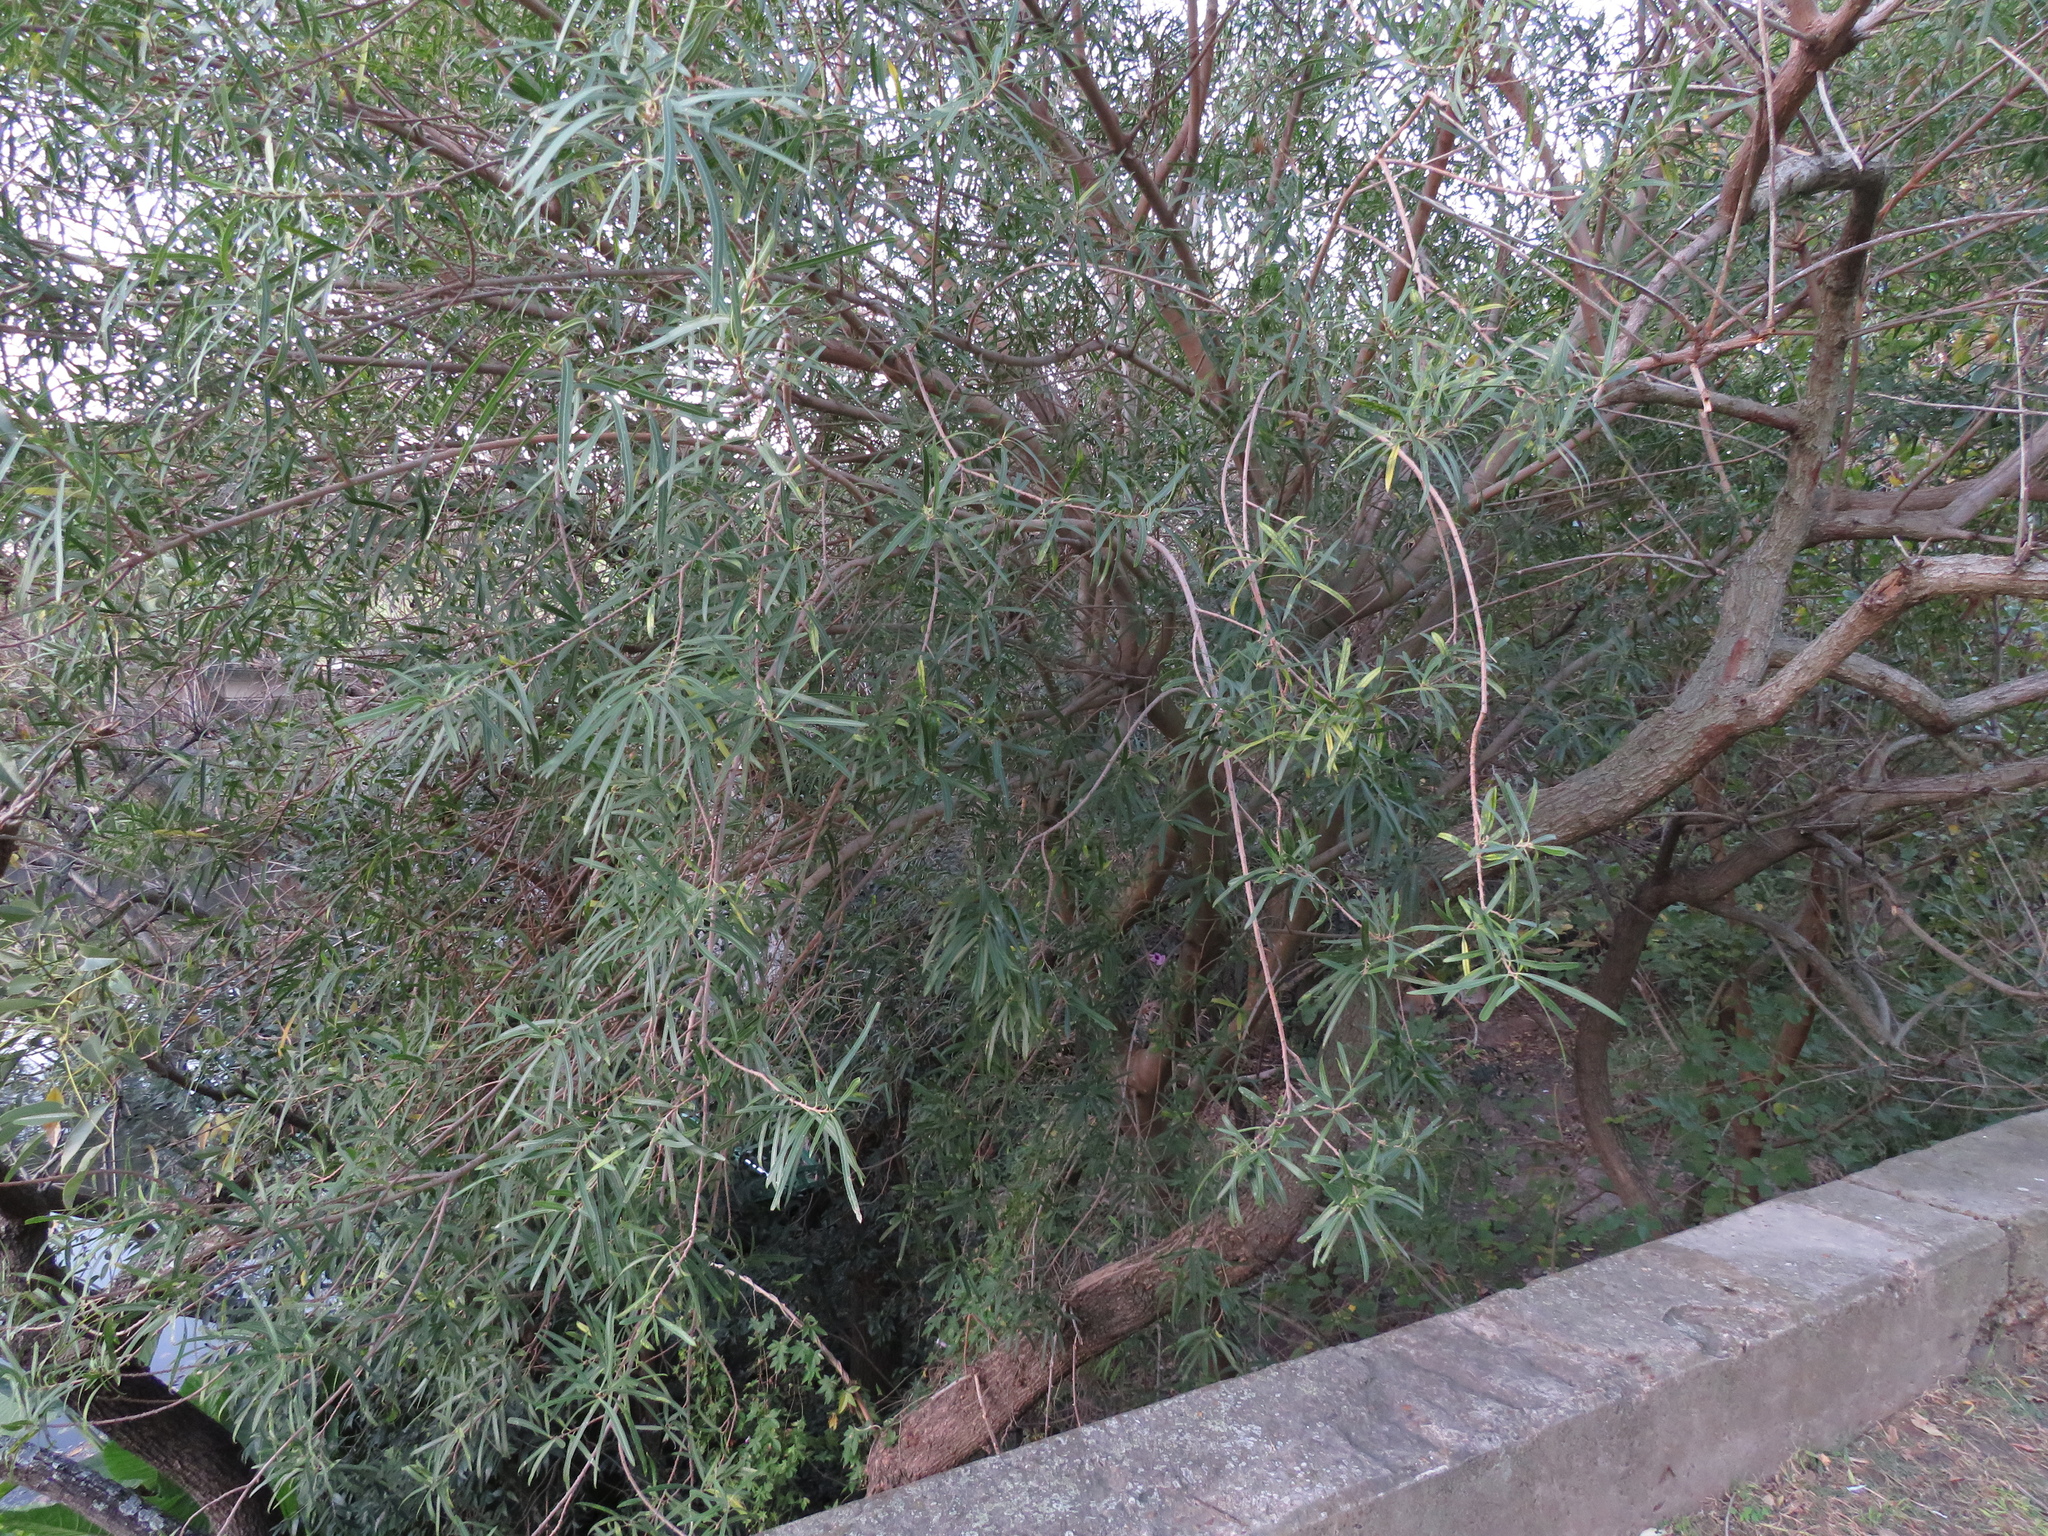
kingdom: Plantae
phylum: Tracheophyta
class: Magnoliopsida
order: Malpighiales
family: Euphorbiaceae
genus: Sapium
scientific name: Sapium haematospermum
